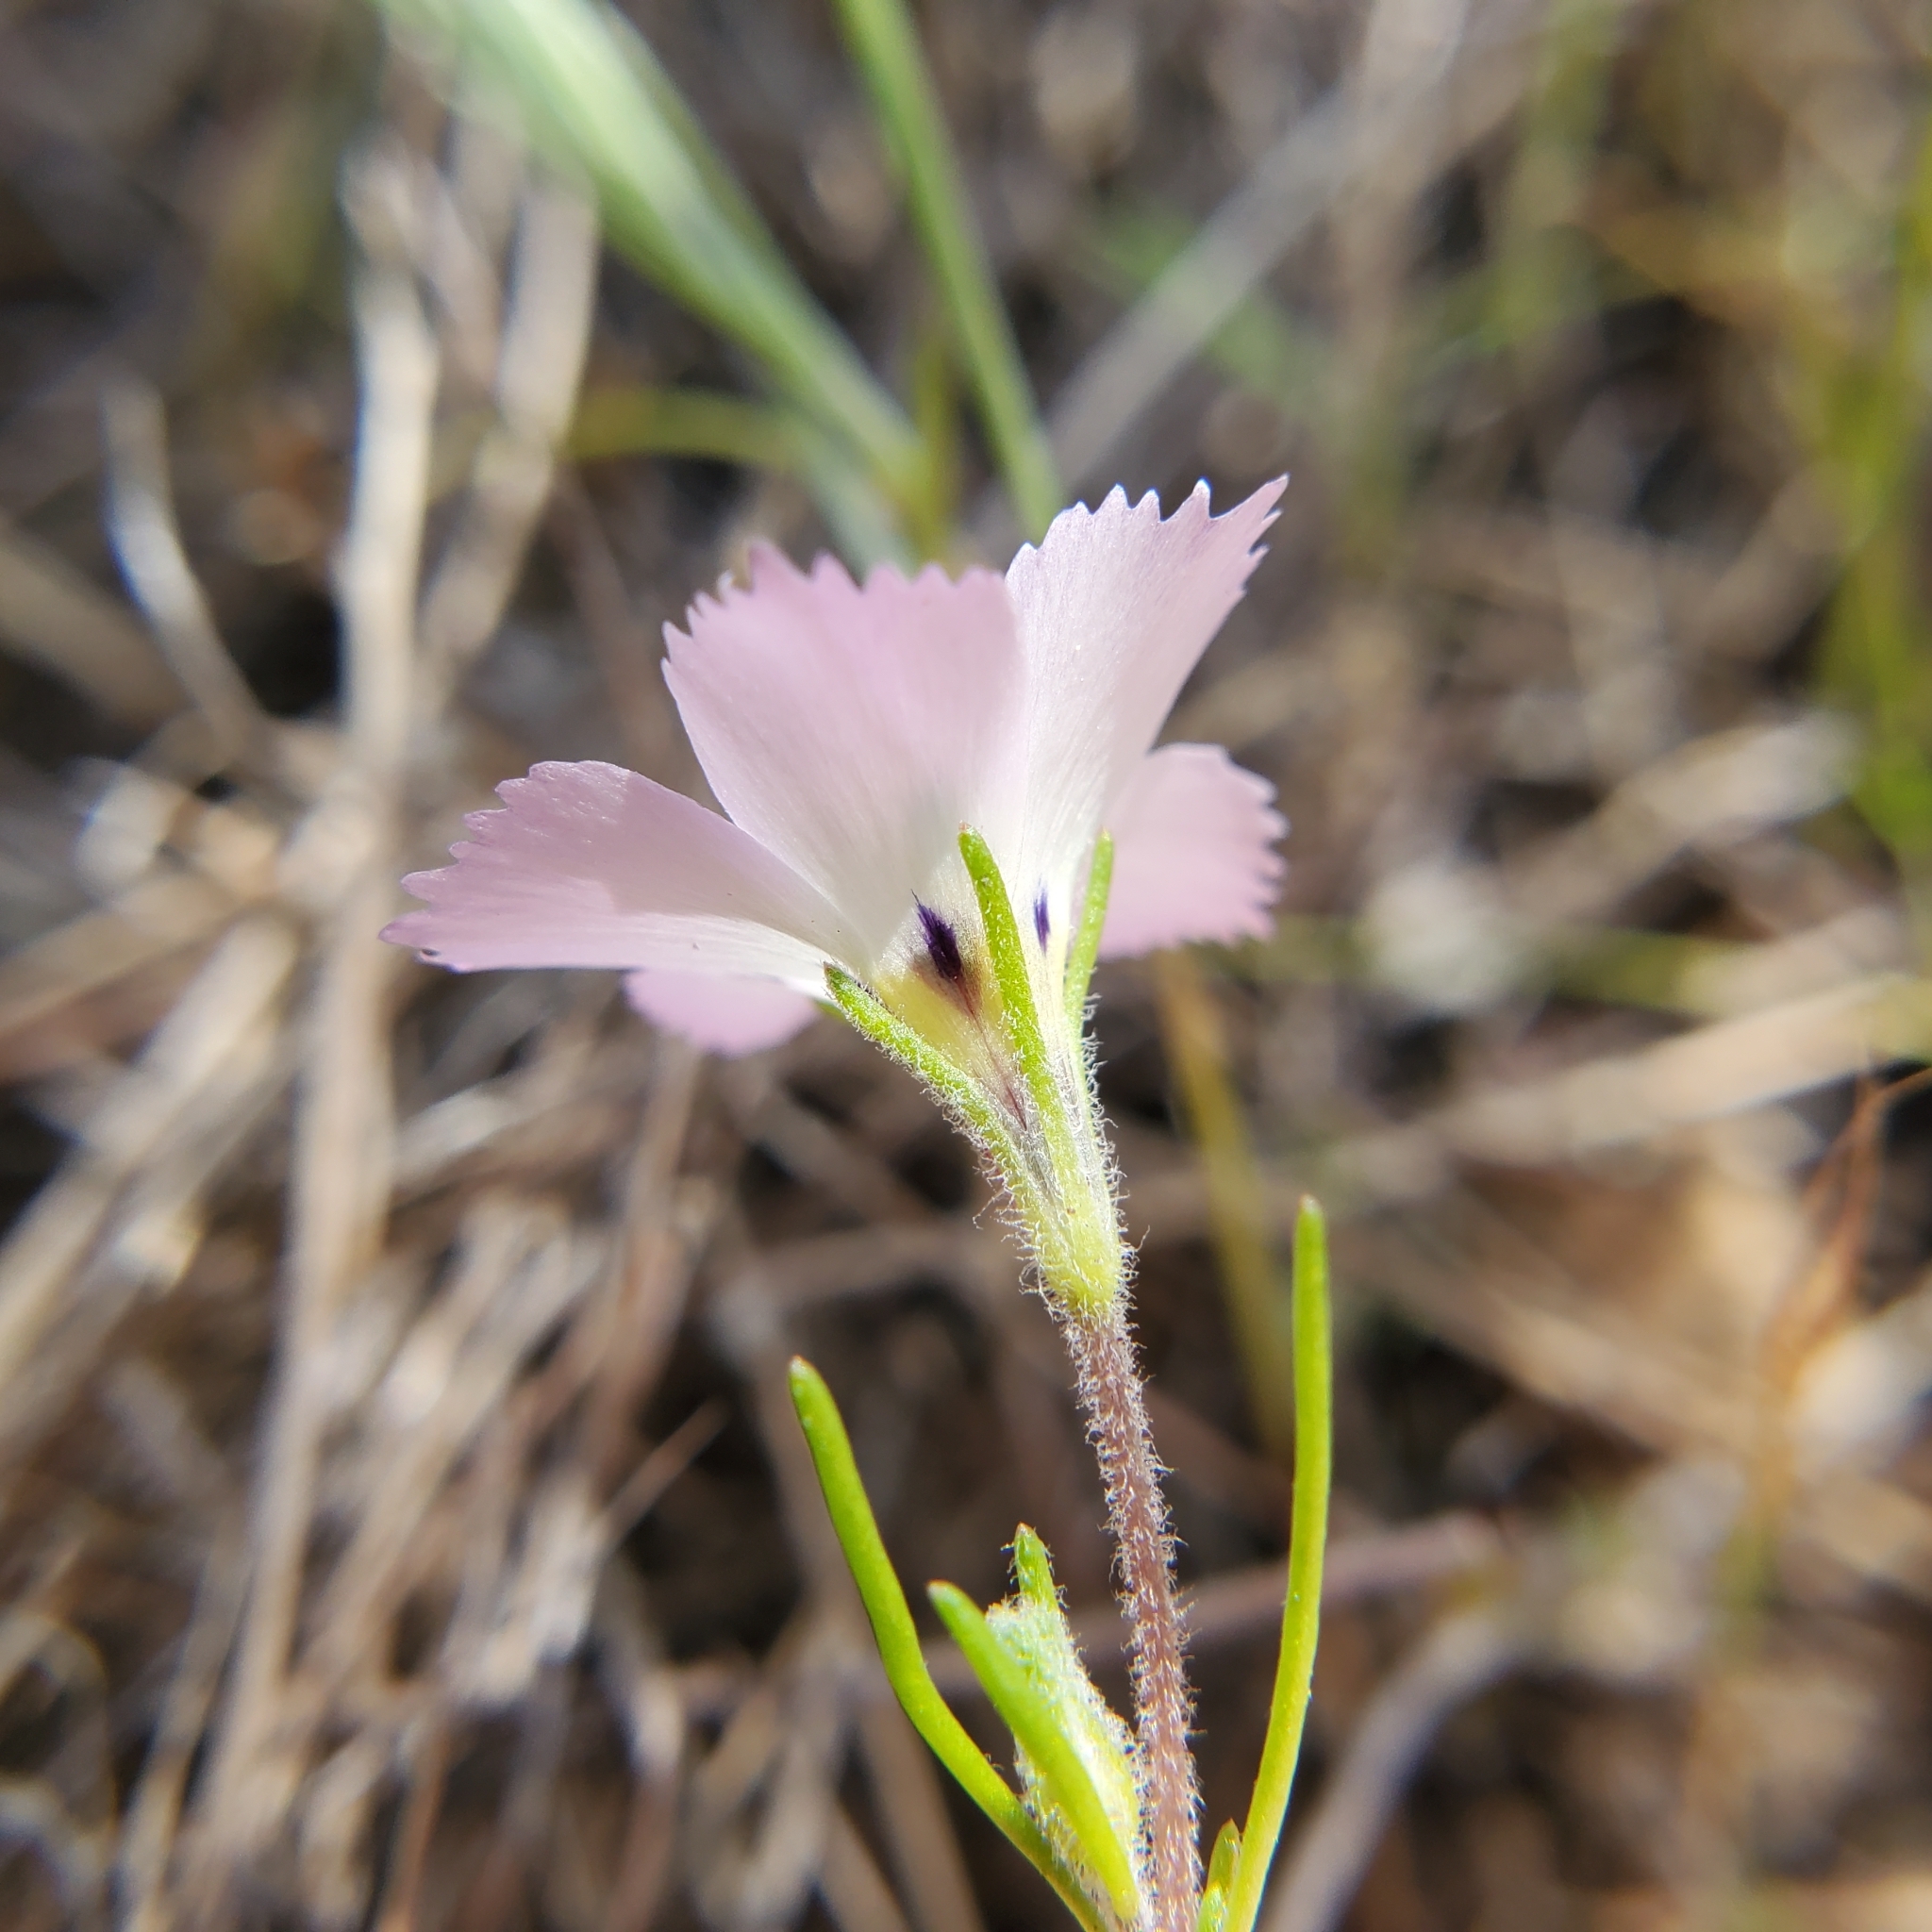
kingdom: Plantae
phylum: Tracheophyta
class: Magnoliopsida
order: Ericales
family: Polemoniaceae
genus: Linanthus
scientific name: Linanthus dianthiflorus
